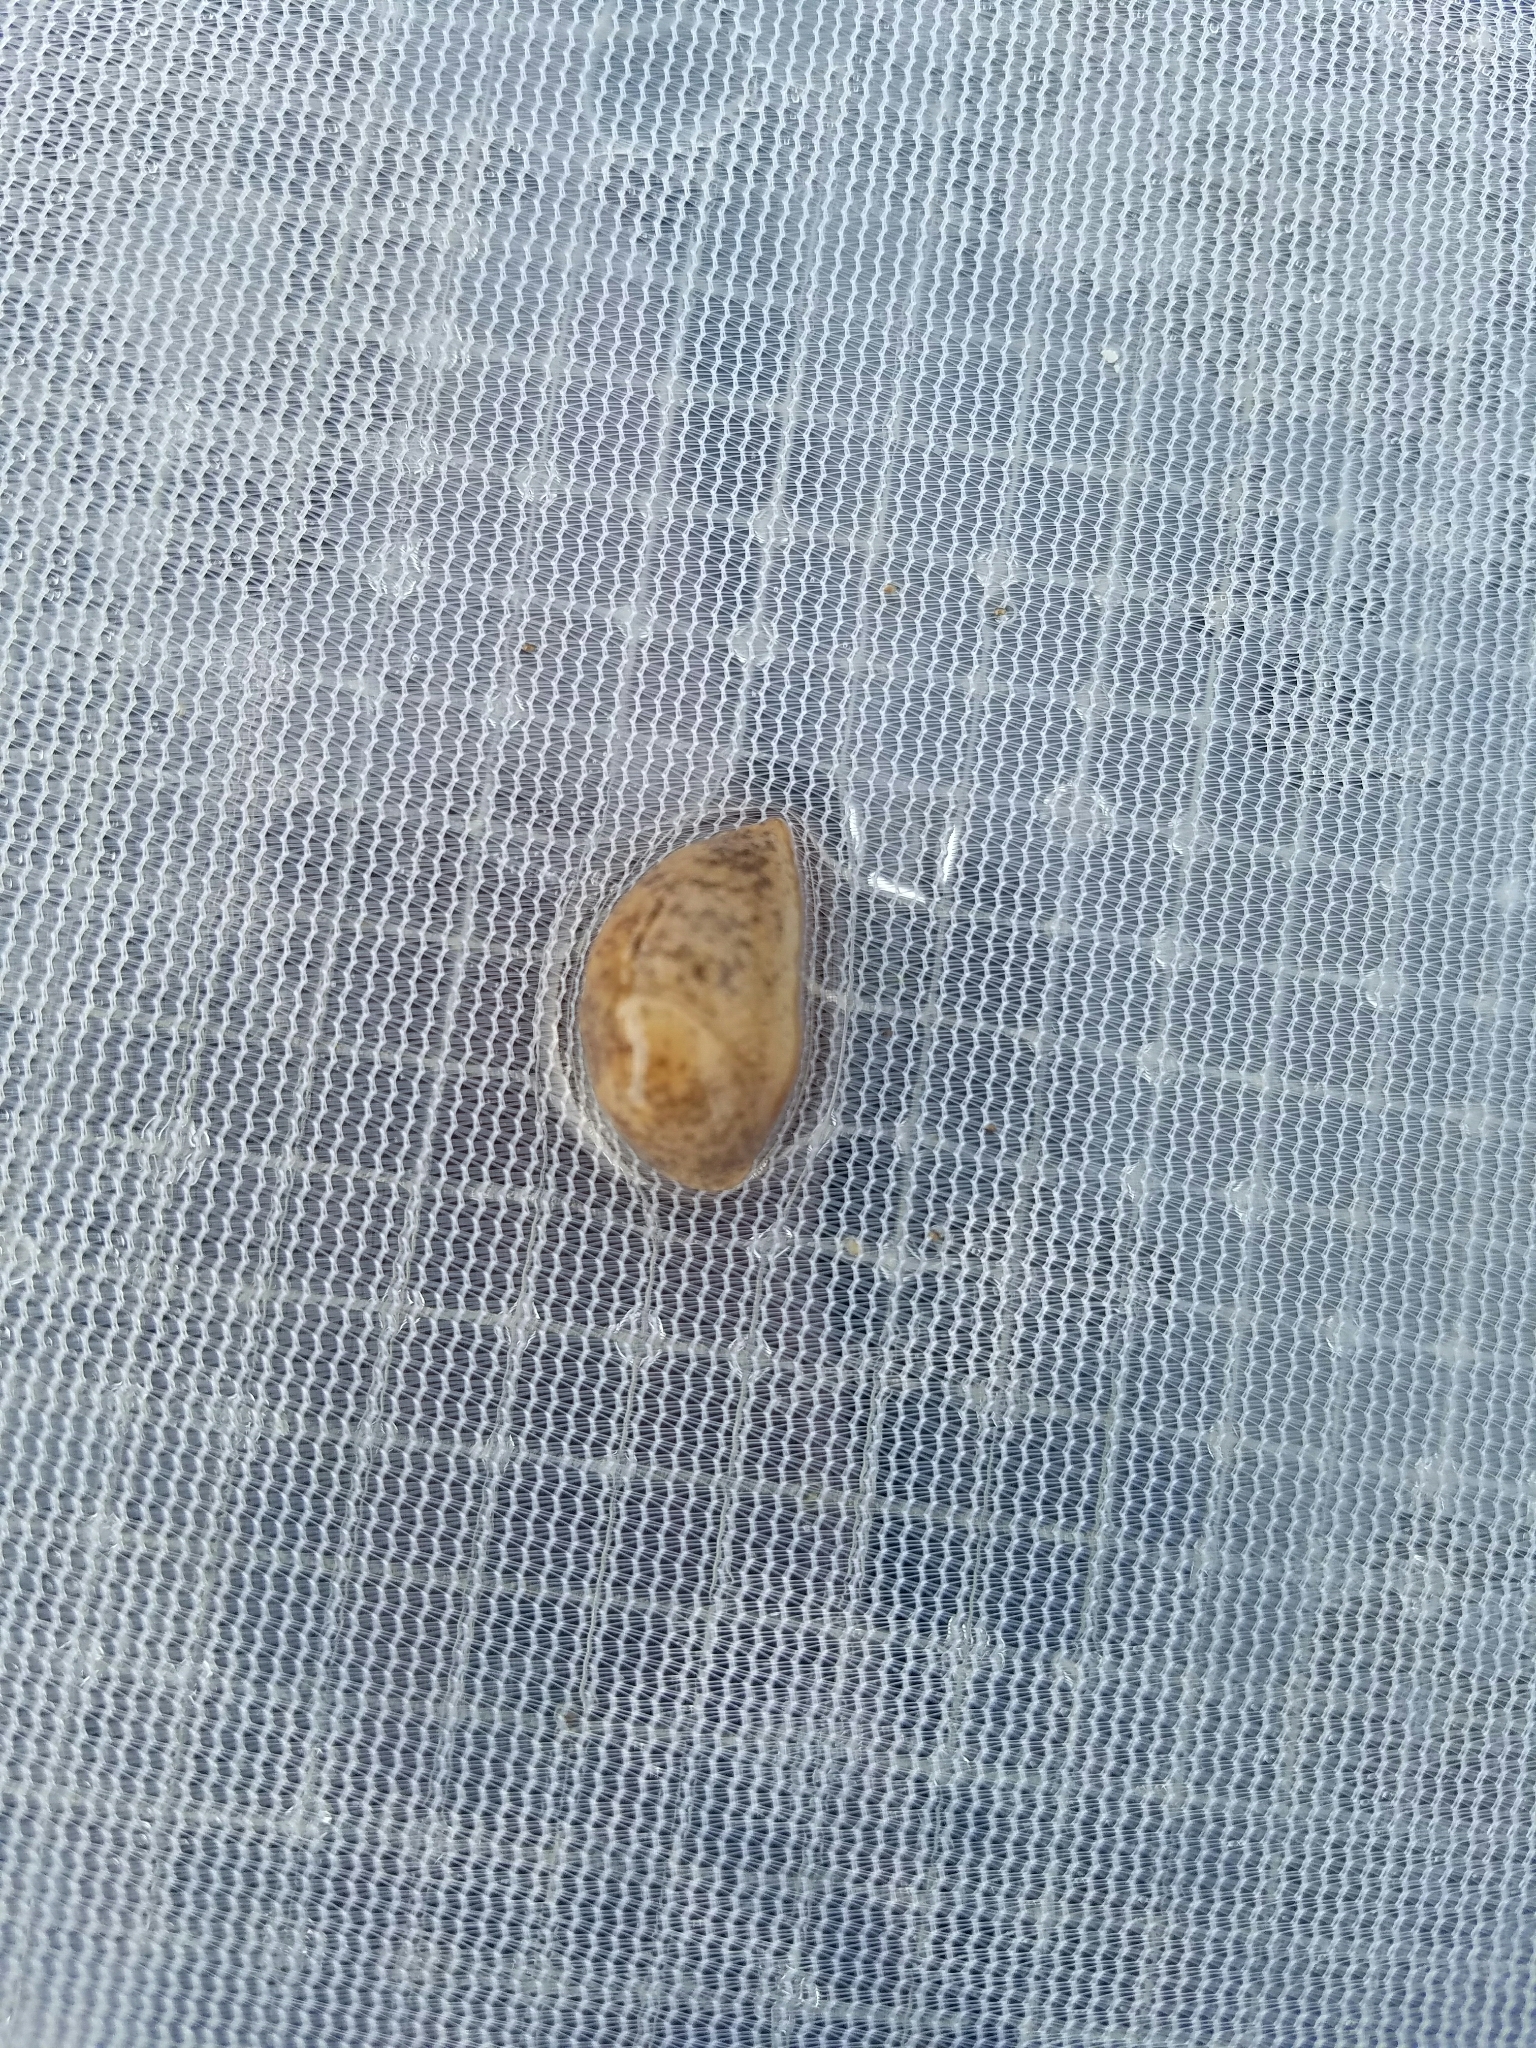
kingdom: Animalia
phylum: Mollusca
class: Gastropoda
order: Stylommatophora
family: Agriolimacidae
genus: Deroceras
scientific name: Deroceras reticulatum
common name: Gray field slug
